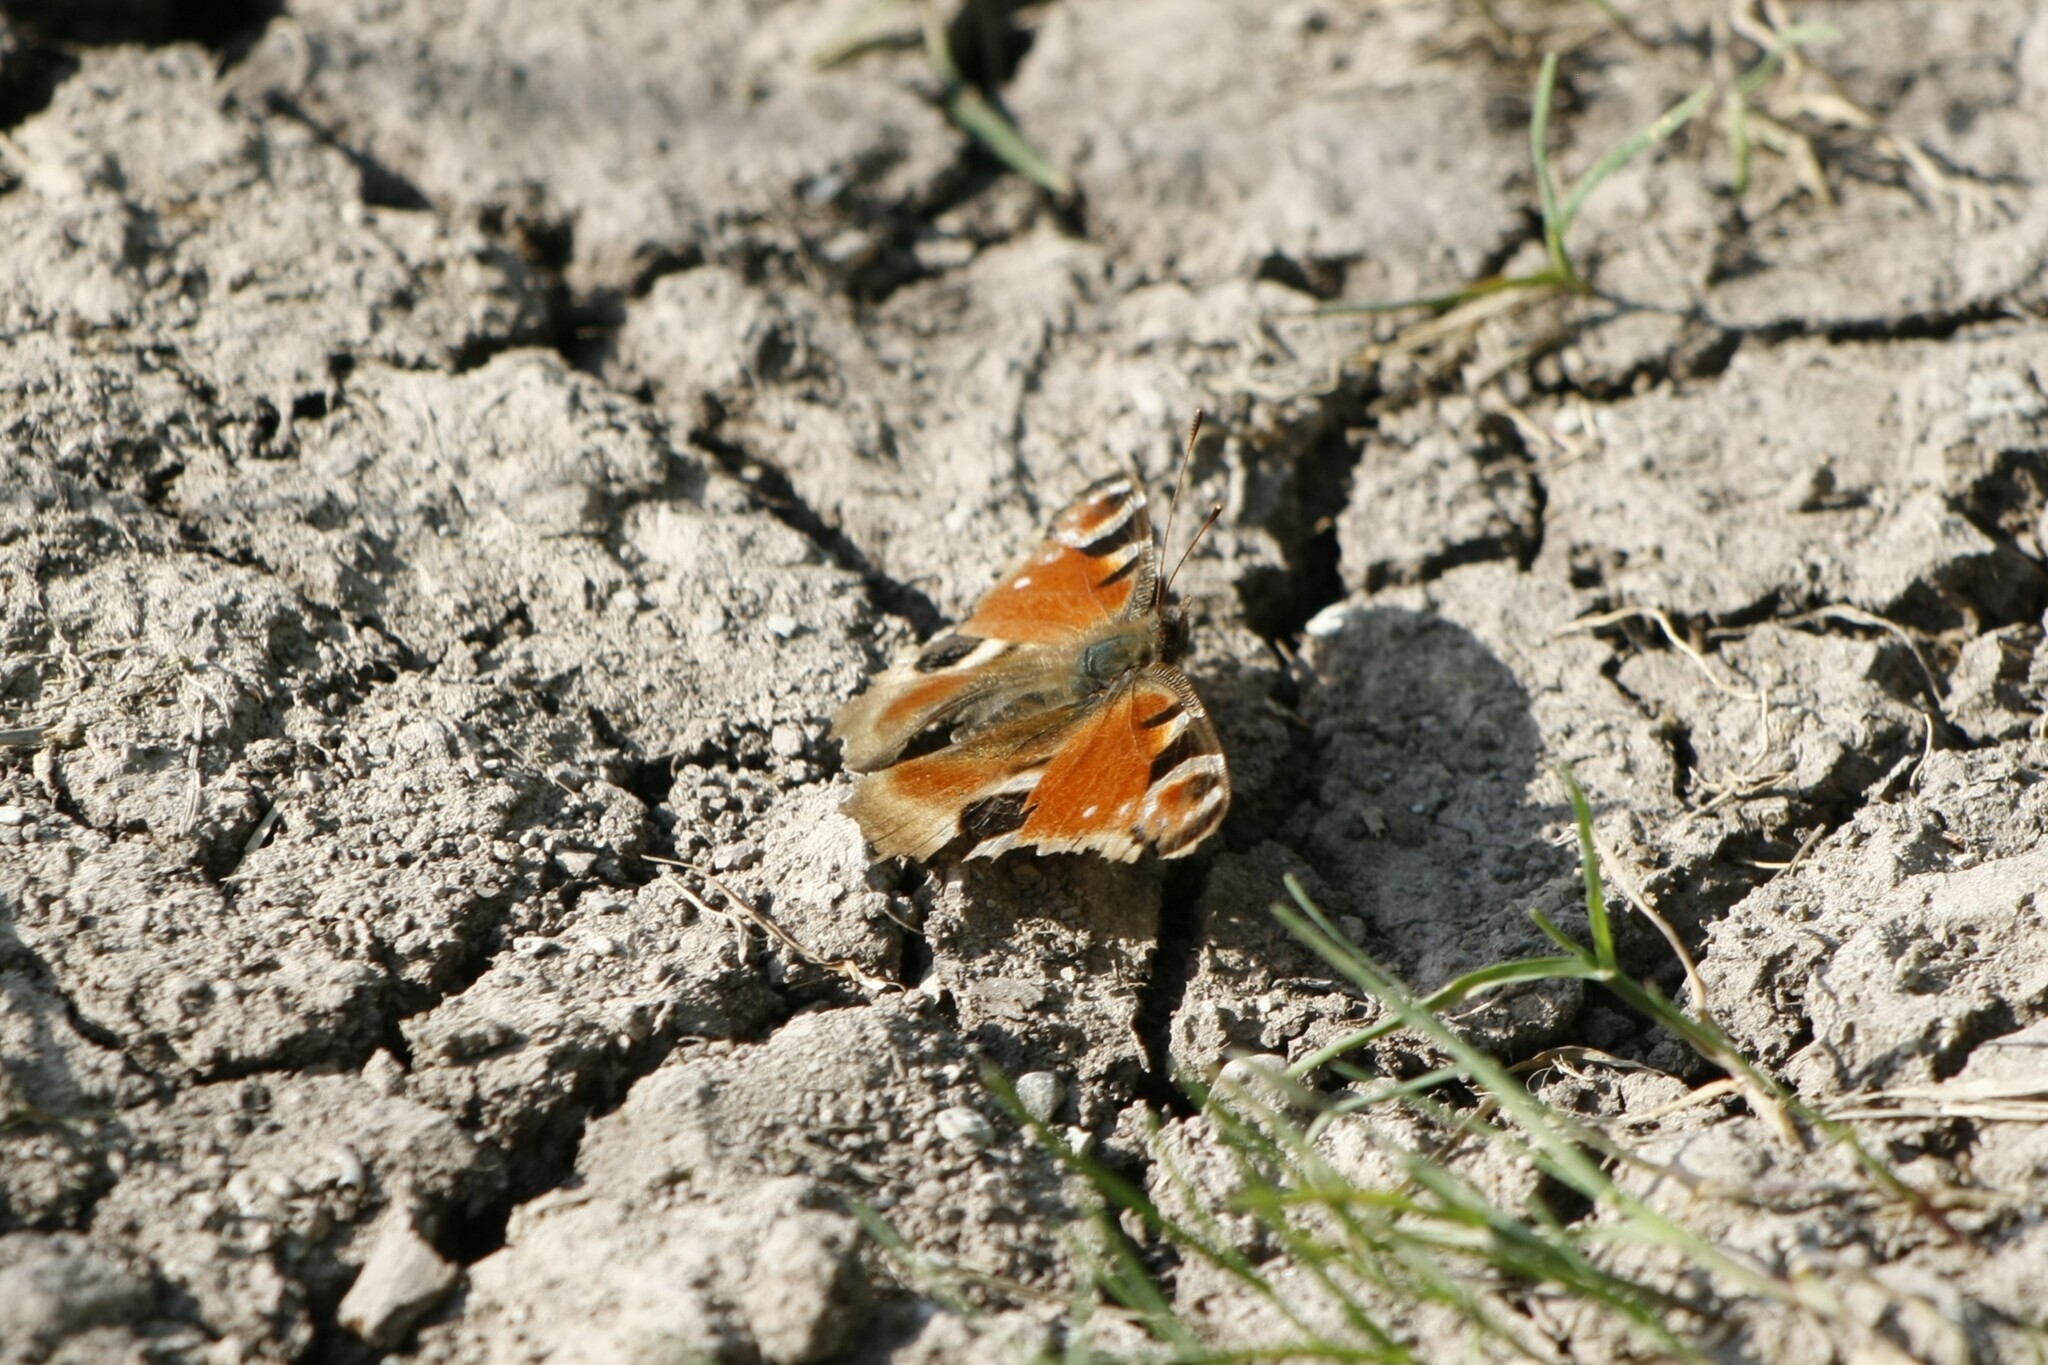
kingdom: Animalia
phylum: Arthropoda
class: Insecta
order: Lepidoptera
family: Nymphalidae
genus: Aglais
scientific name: Aglais io
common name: Peacock
